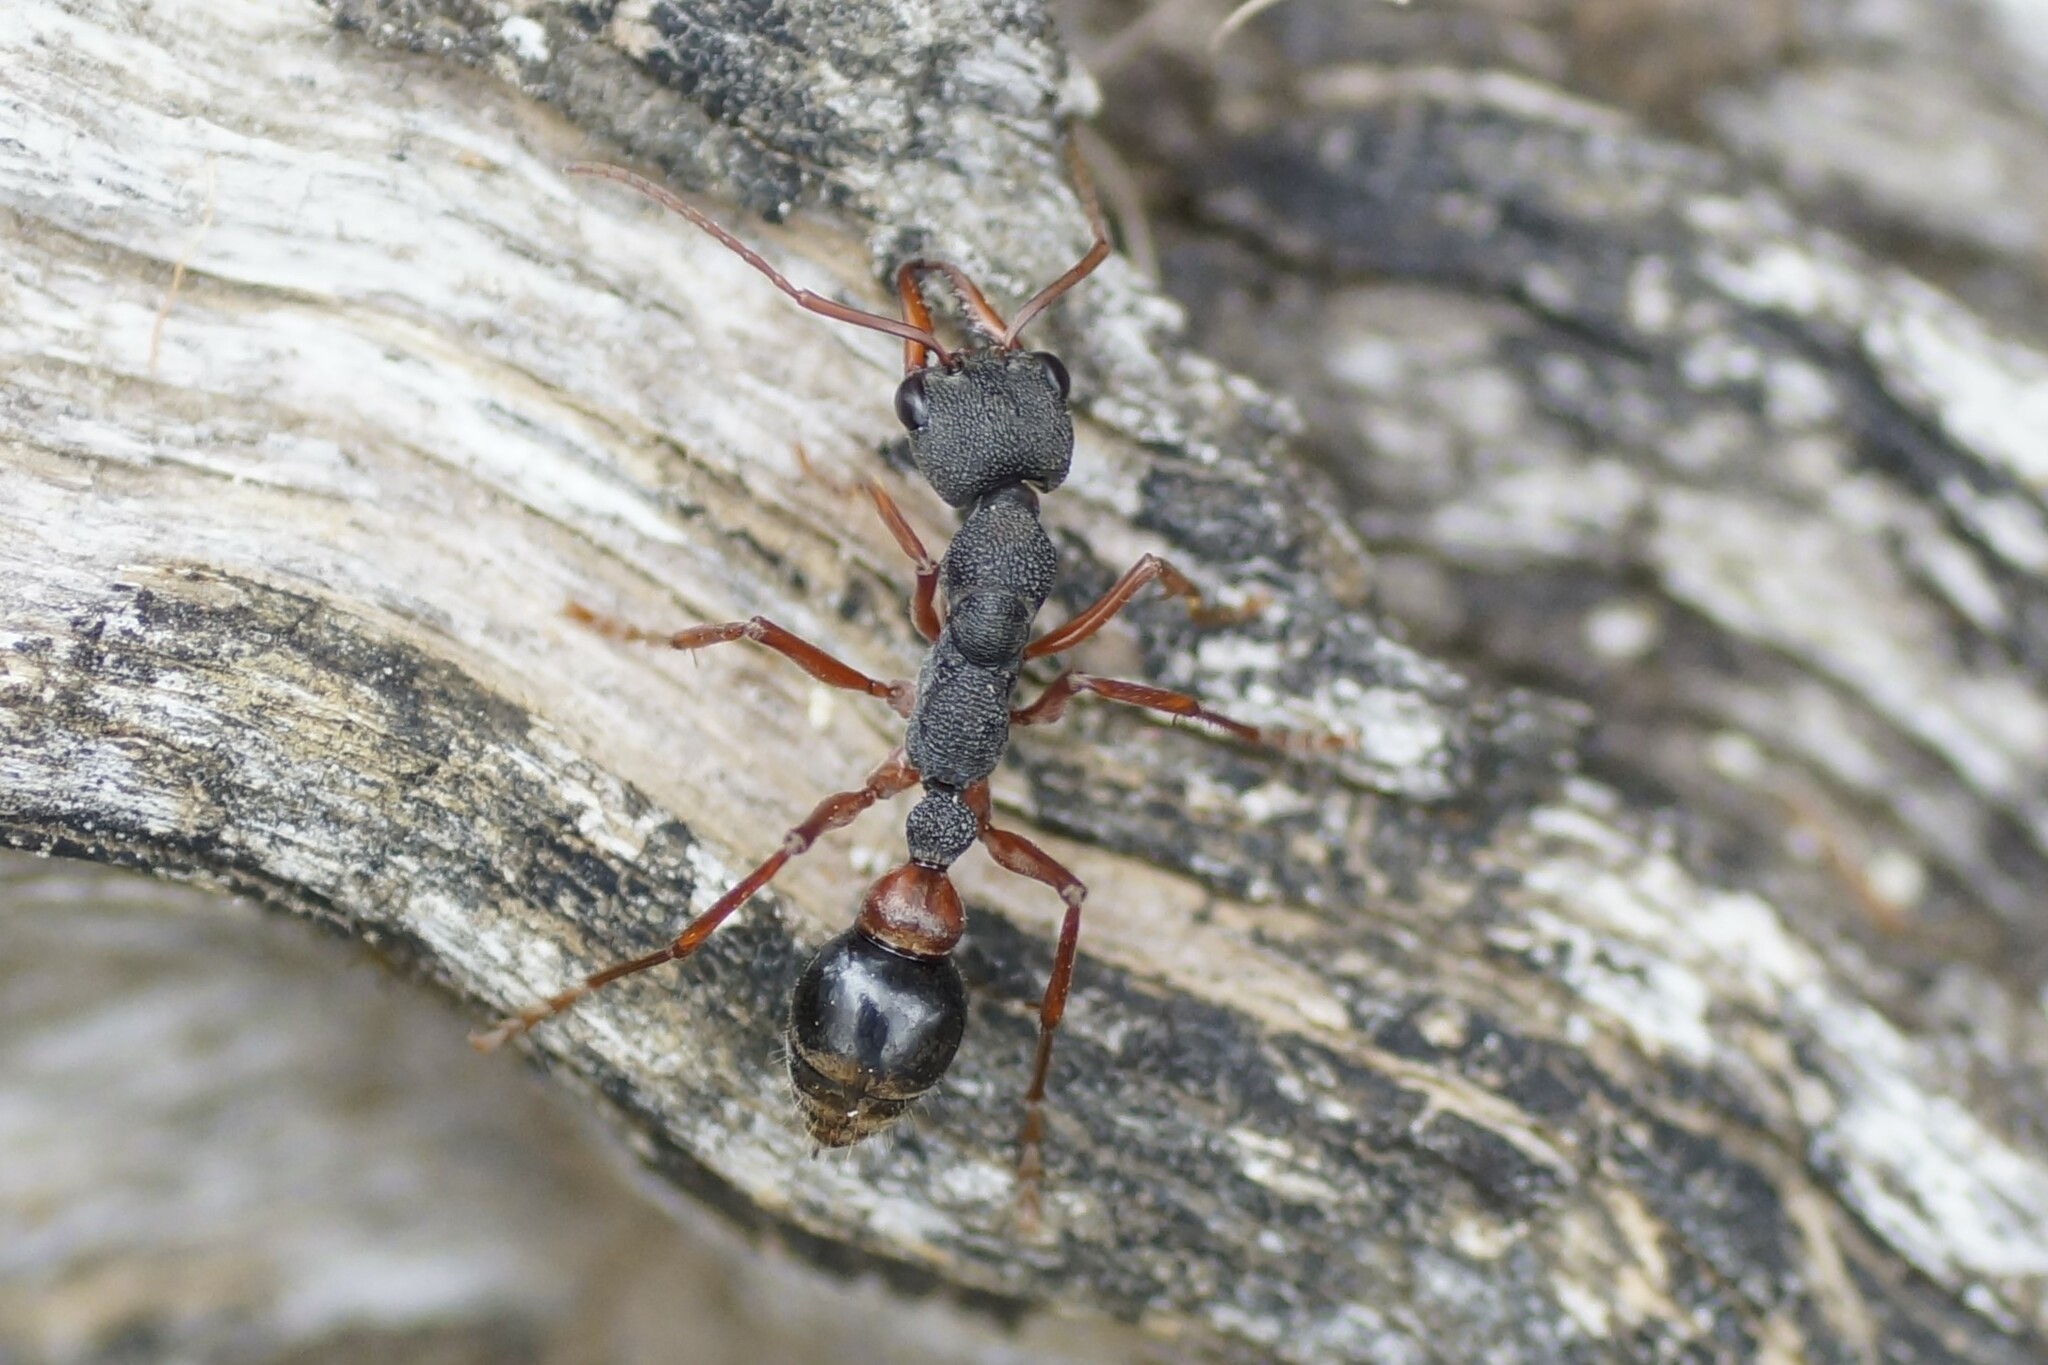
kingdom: Animalia
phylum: Arthropoda
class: Insecta
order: Hymenoptera
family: Formicidae
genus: Myrmecia
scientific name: Myrmecia esuriens
